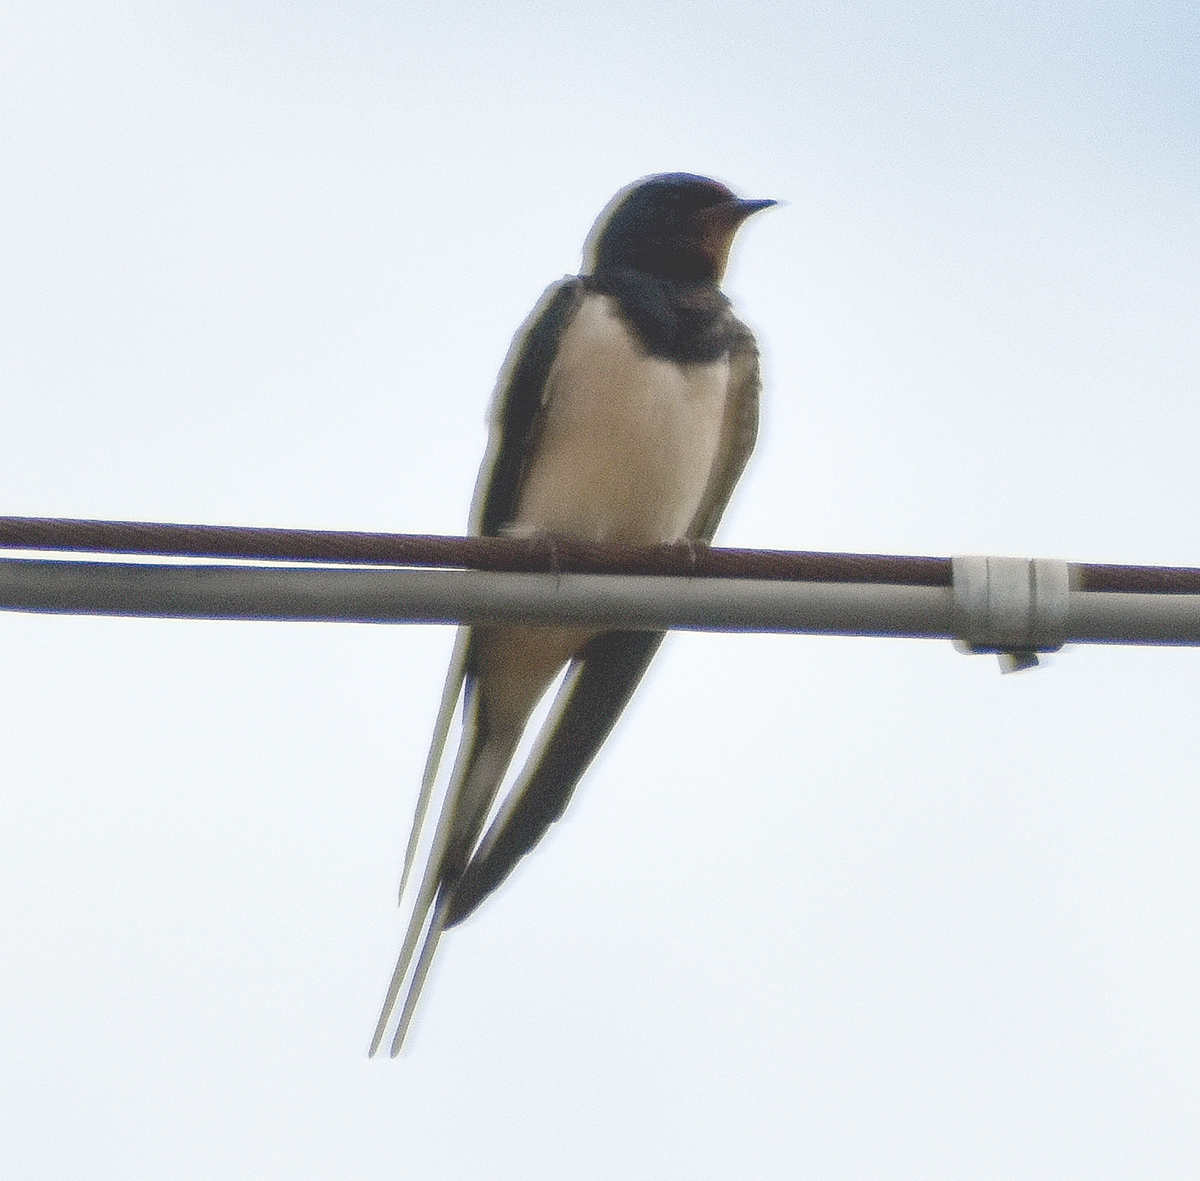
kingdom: Animalia
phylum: Chordata
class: Aves
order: Passeriformes
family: Hirundinidae
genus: Hirundo
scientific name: Hirundo rustica
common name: Barn swallow
